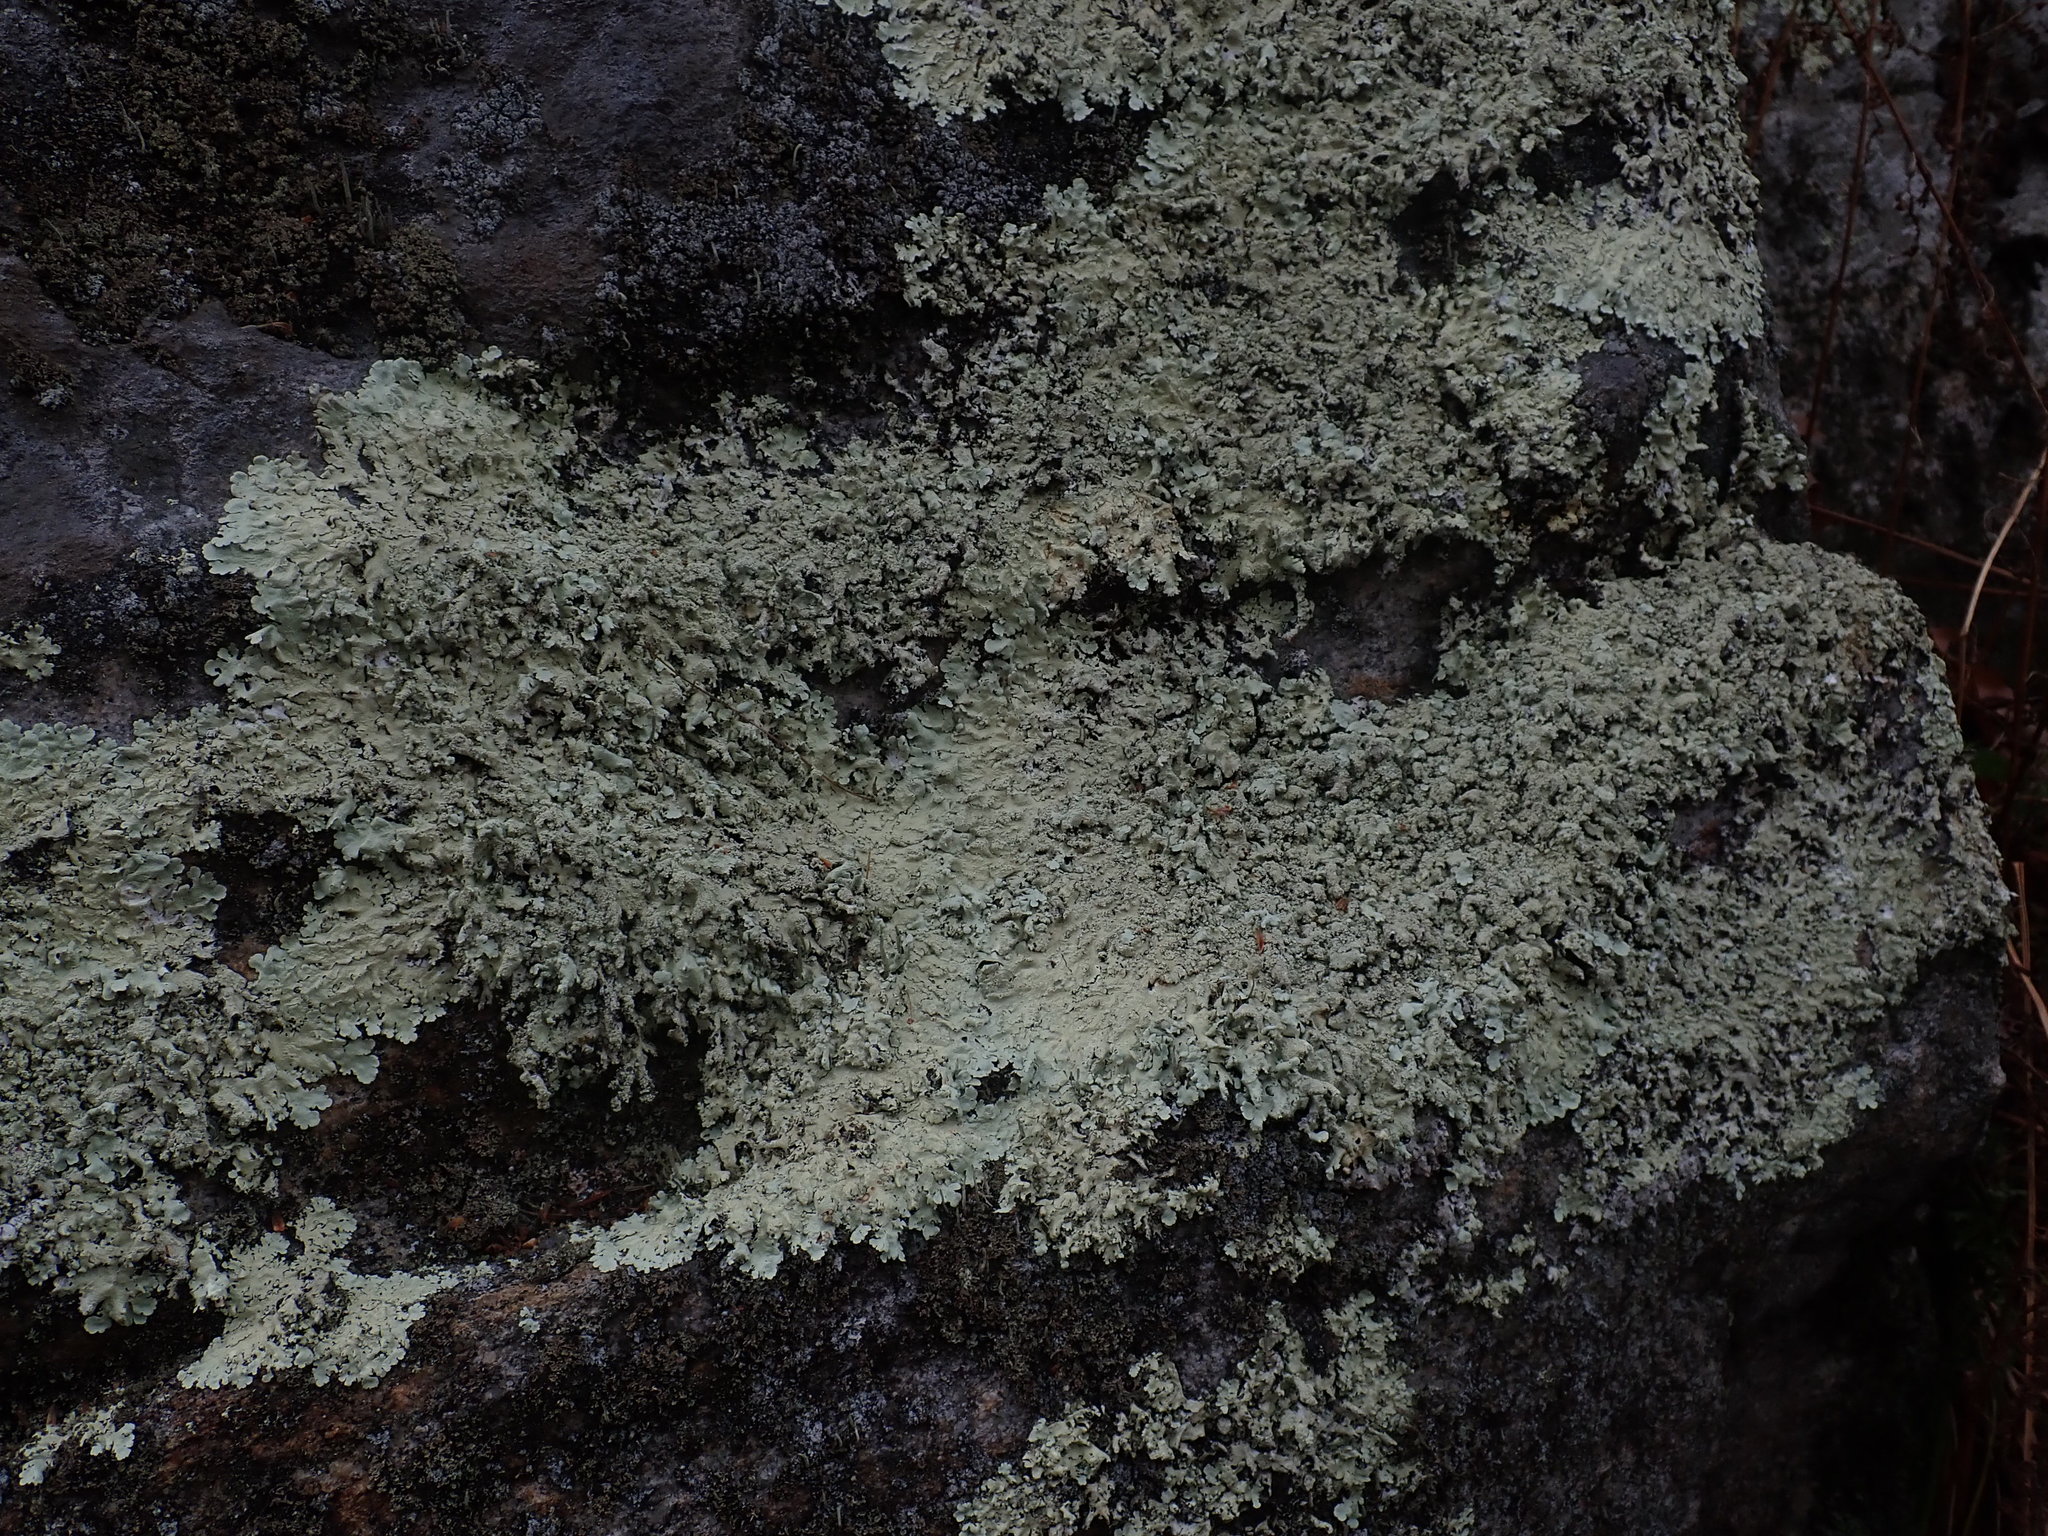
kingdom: Fungi
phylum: Ascomycota
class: Lecanoromycetes
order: Lecanorales
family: Parmeliaceae
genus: Flavoparmelia
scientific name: Flavoparmelia baltimorensis
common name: Rock greenshield
